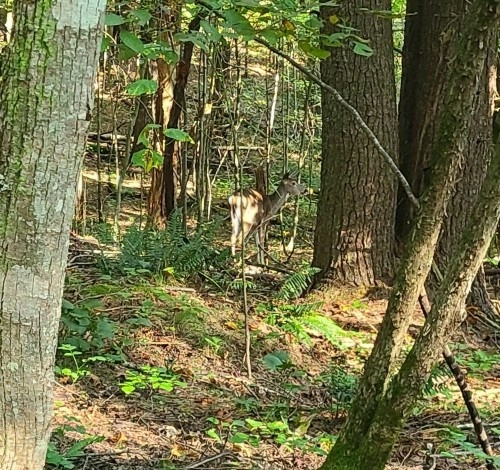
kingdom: Animalia
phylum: Chordata
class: Mammalia
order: Artiodactyla
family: Cervidae
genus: Odocoileus
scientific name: Odocoileus virginianus
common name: White-tailed deer
